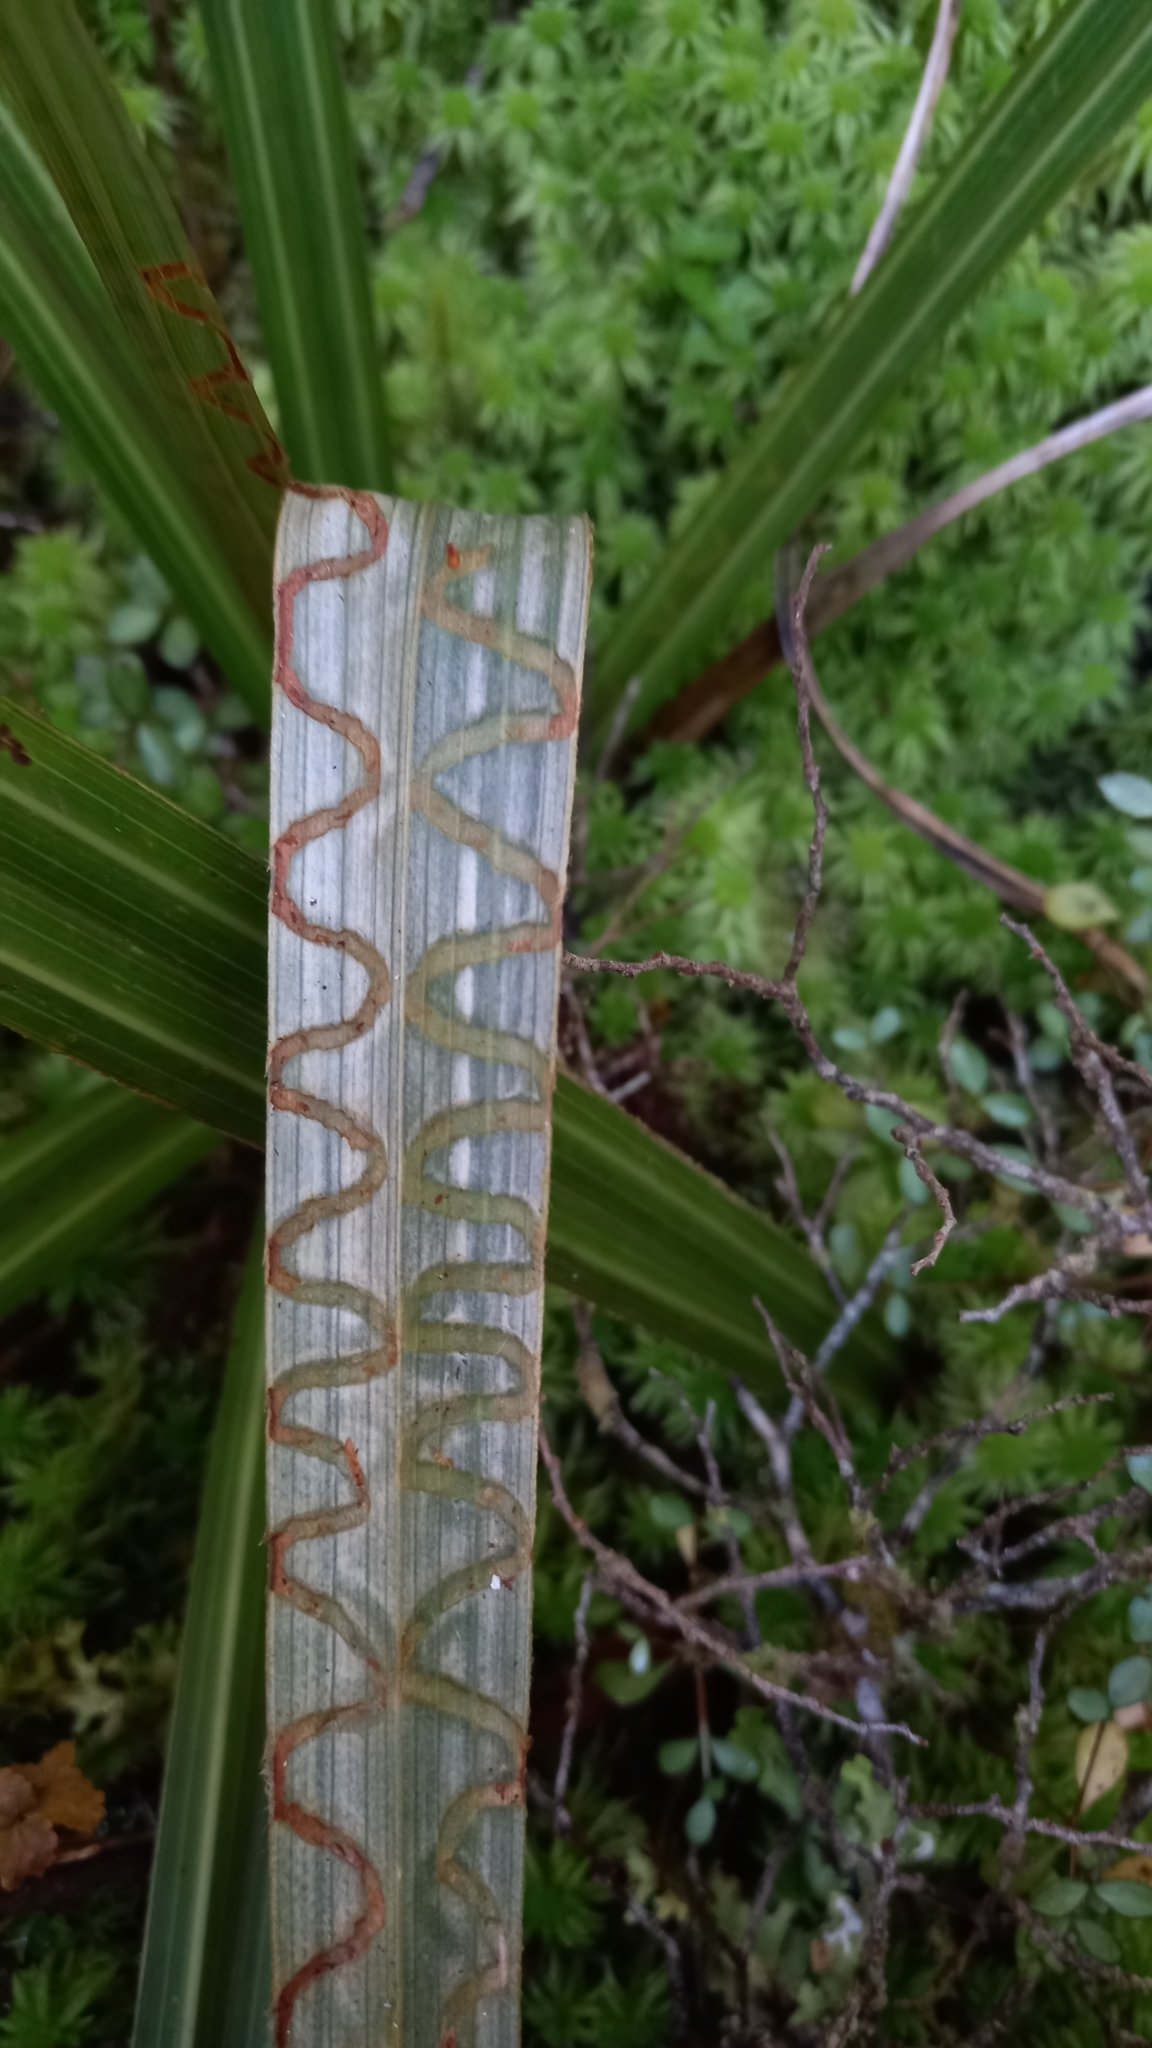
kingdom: Animalia
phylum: Arthropoda
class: Insecta
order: Lepidoptera
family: Plutellidae
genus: Charixena
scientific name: Charixena iridoxa
